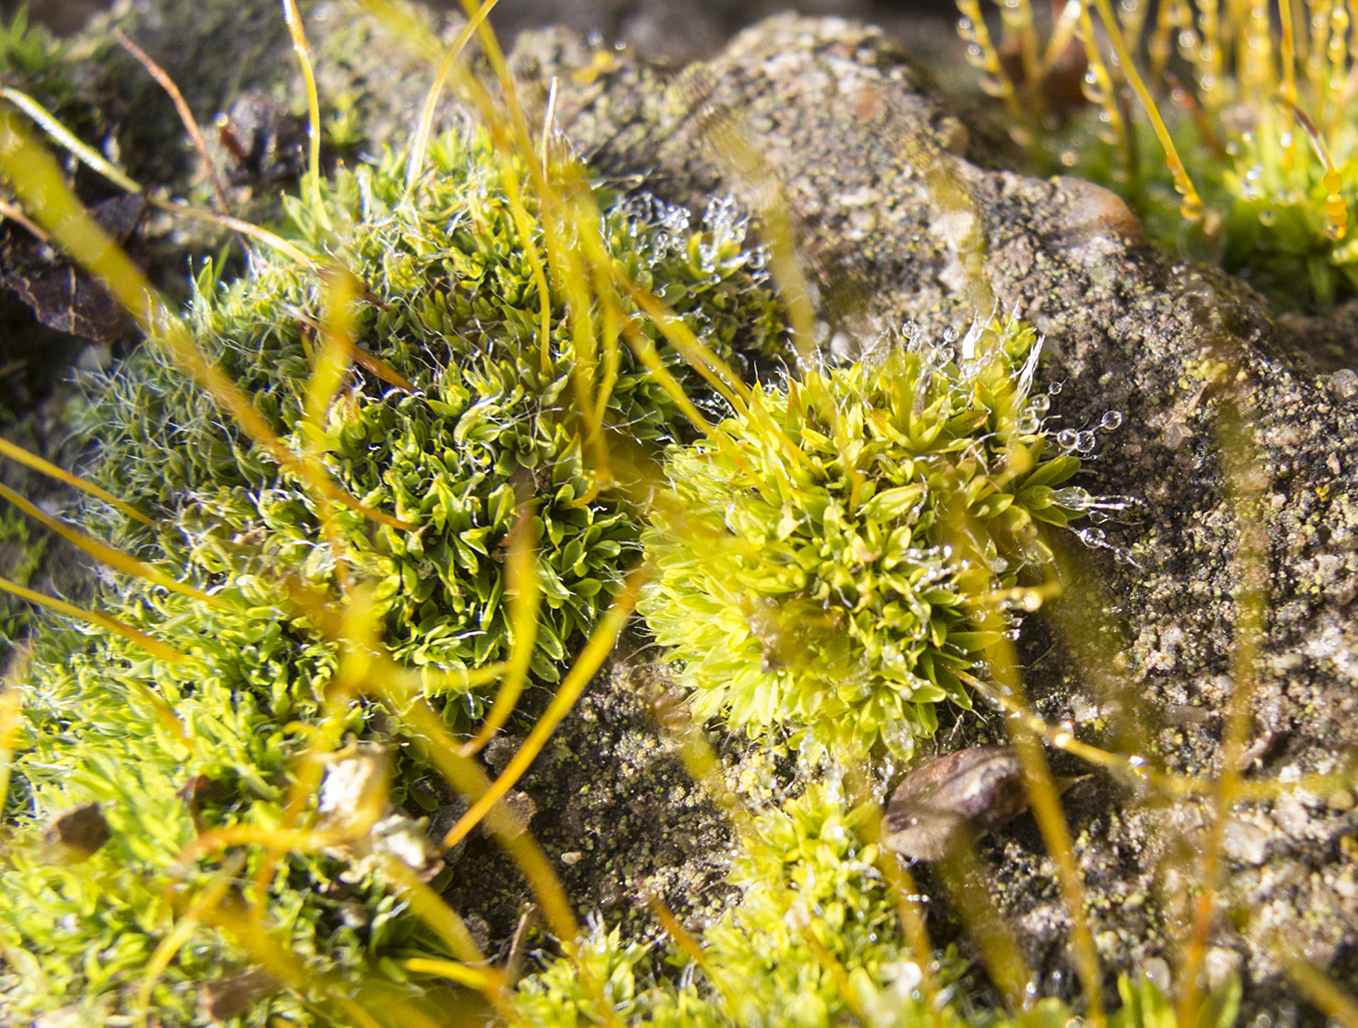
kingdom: Plantae
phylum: Bryophyta
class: Bryopsida
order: Pottiales
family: Pottiaceae
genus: Tortula
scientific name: Tortula muralis
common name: Wall screw-moss
